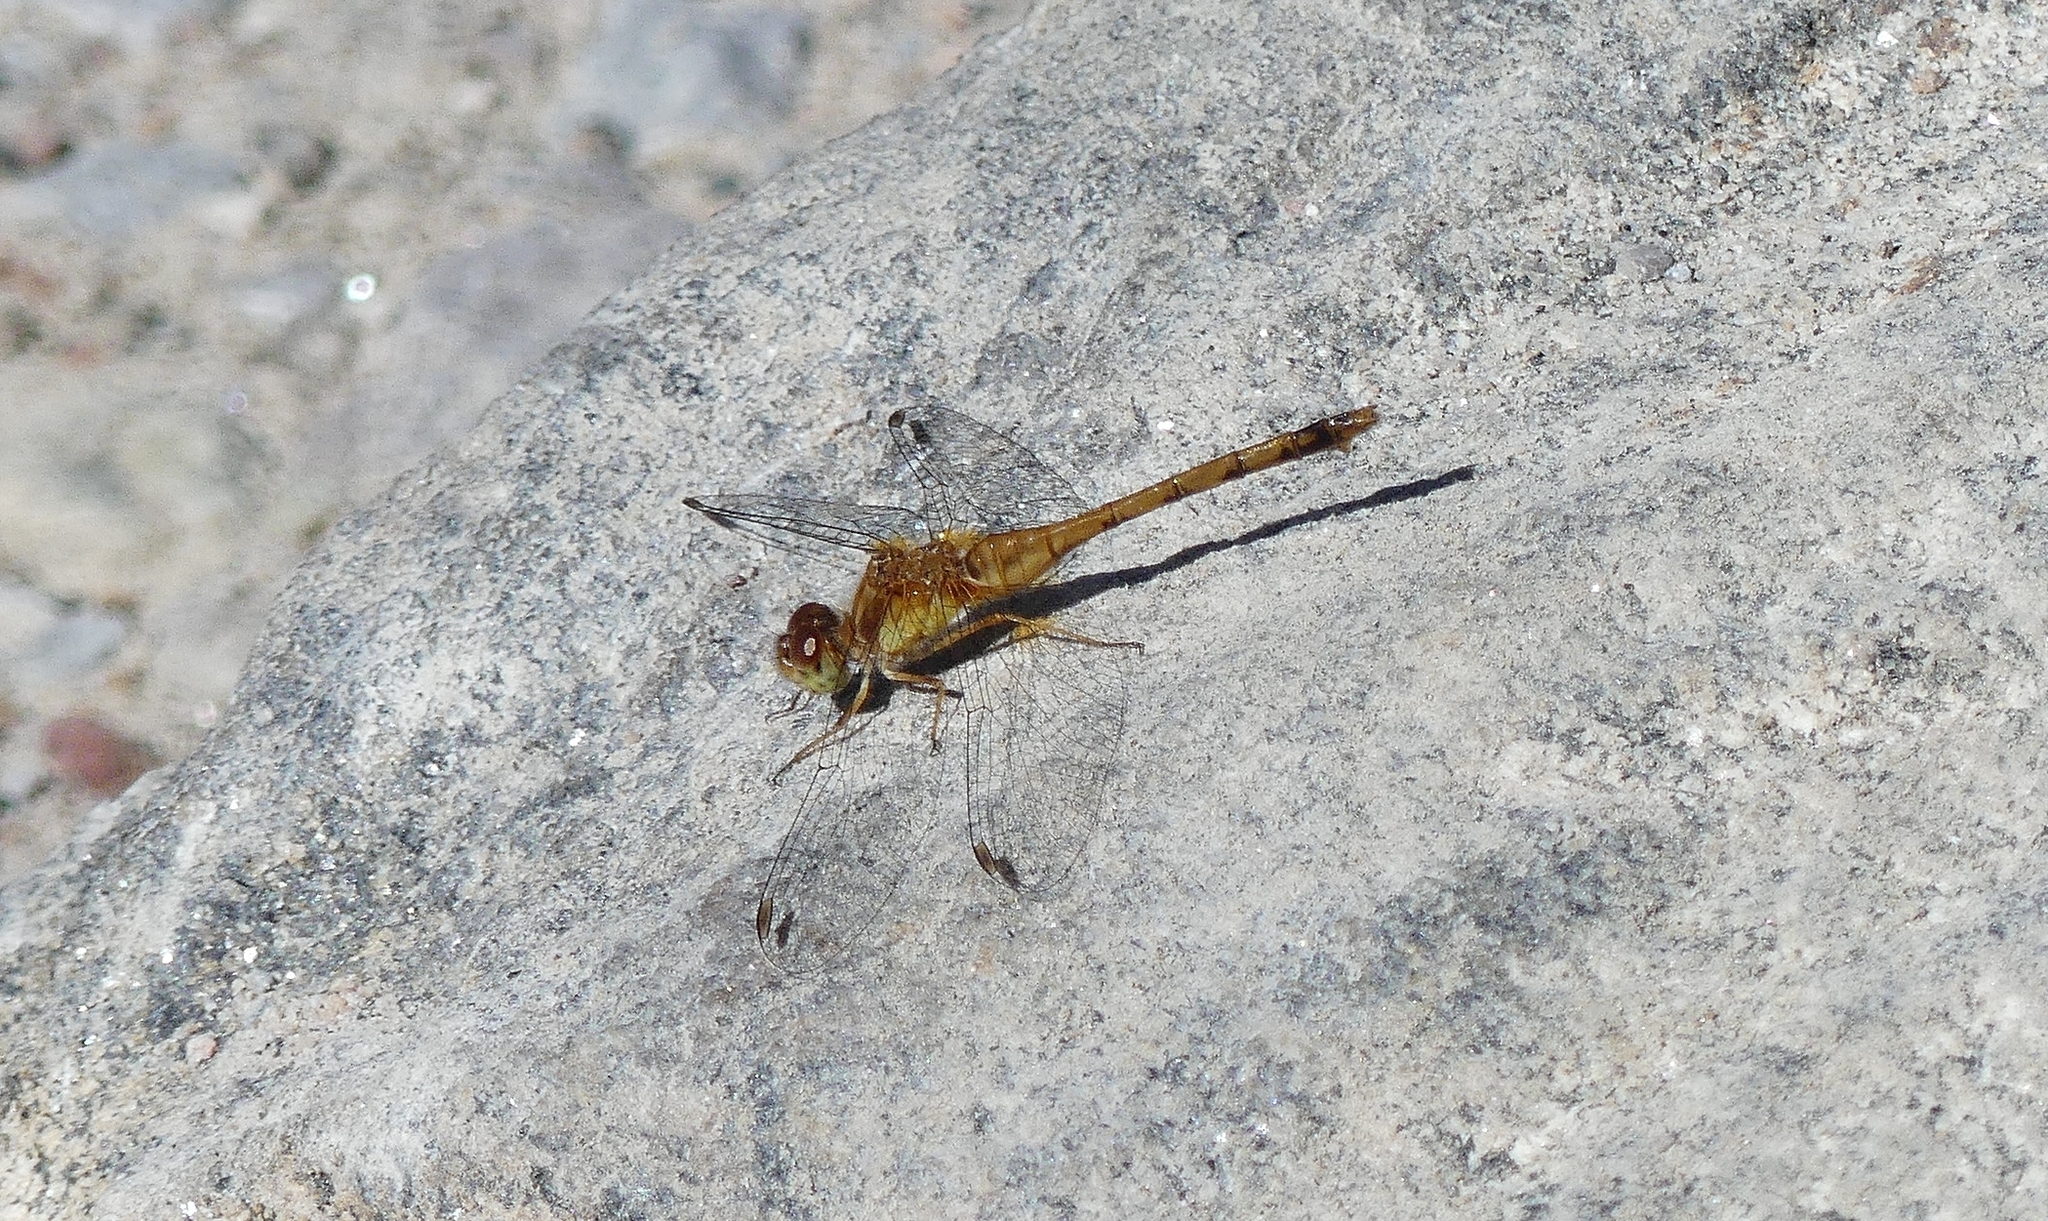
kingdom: Animalia
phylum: Arthropoda
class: Insecta
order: Odonata
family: Libellulidae
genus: Sympetrum
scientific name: Sympetrum vicinum
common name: Autumn meadowhawk
